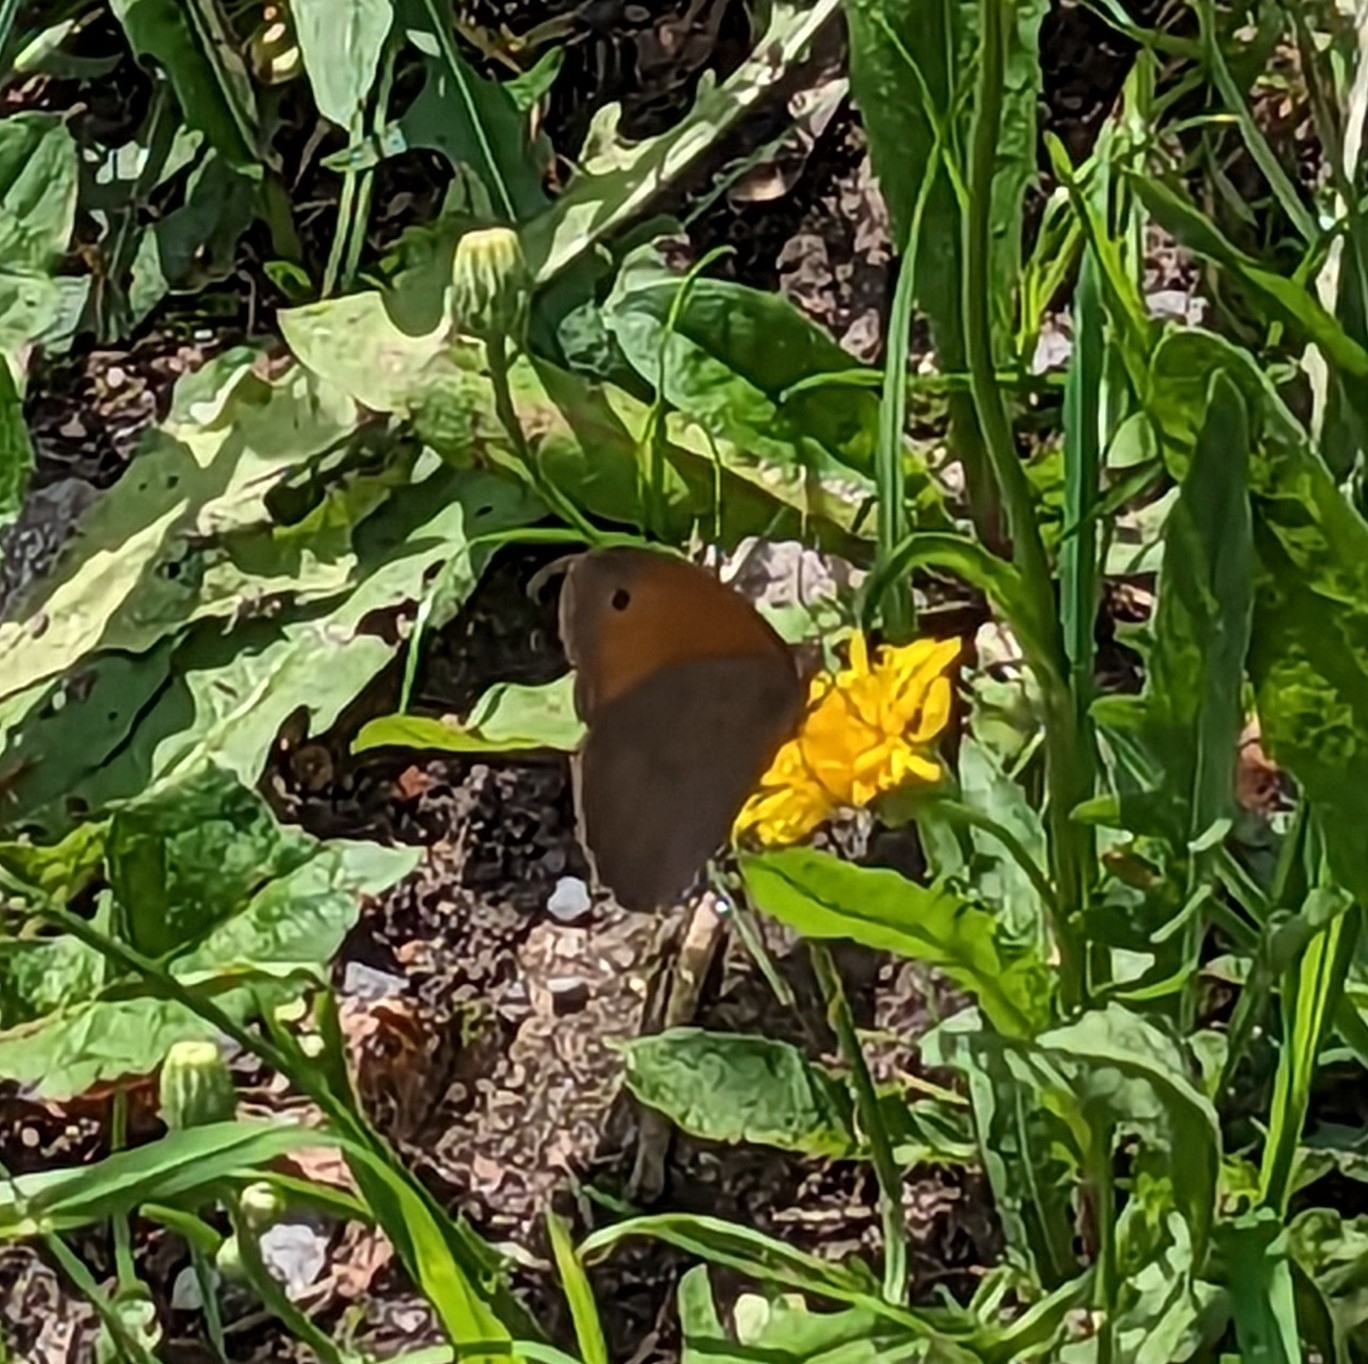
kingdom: Animalia
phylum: Arthropoda
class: Insecta
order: Lepidoptera
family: Nymphalidae
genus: Maniola
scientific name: Maniola jurtina
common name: Meadow brown
